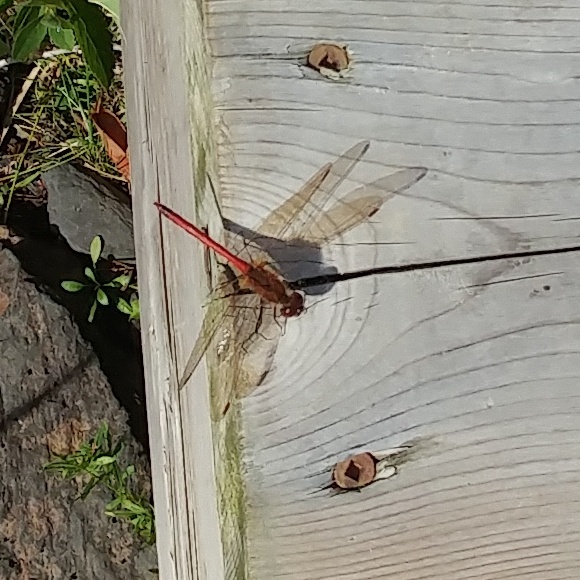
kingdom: Animalia
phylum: Arthropoda
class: Insecta
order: Odonata
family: Libellulidae
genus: Sympetrum
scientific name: Sympetrum
